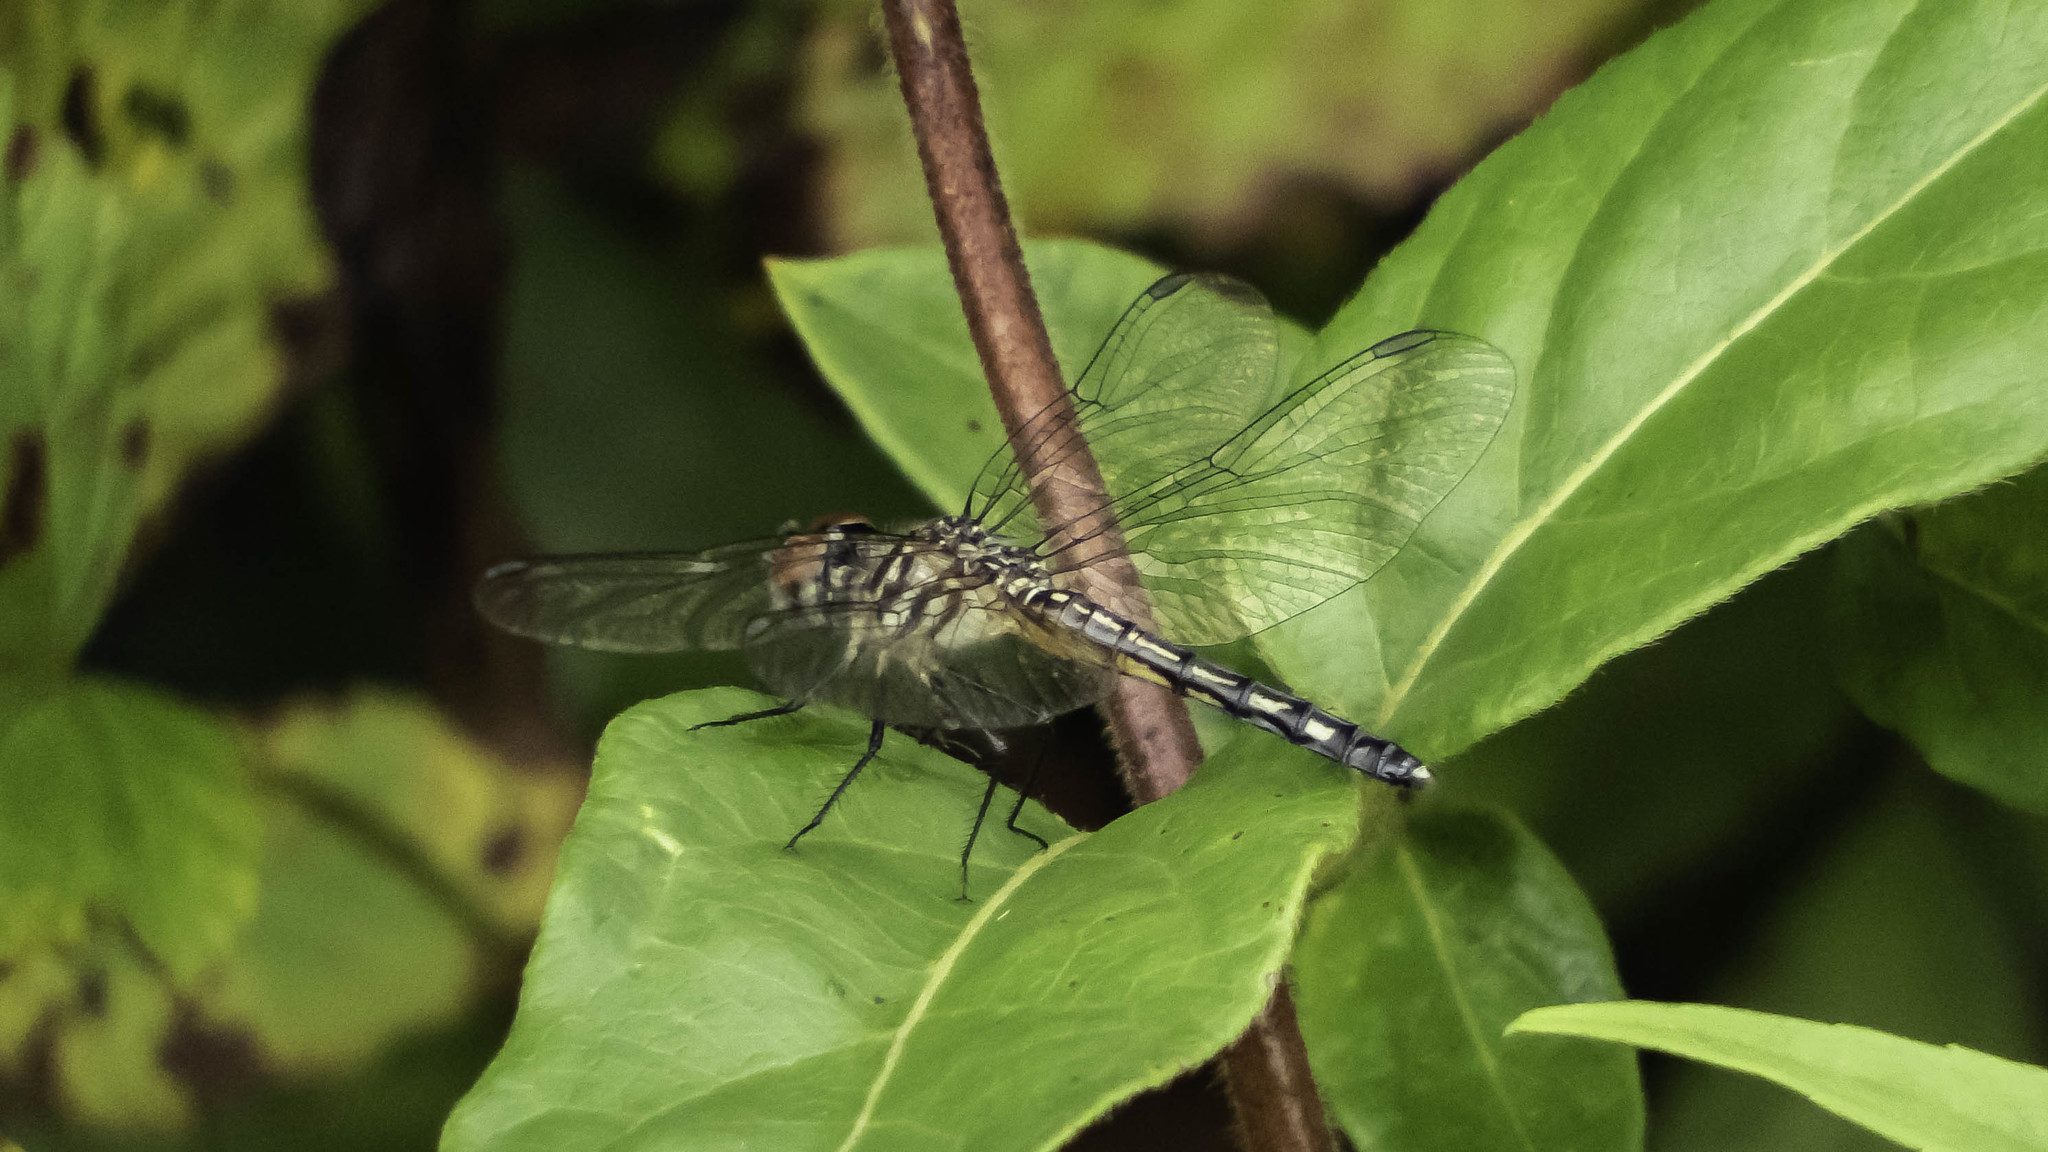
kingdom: Animalia
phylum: Arthropoda
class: Insecta
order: Odonata
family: Libellulidae
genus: Pachydiplax
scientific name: Pachydiplax longipennis
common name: Blue dasher
